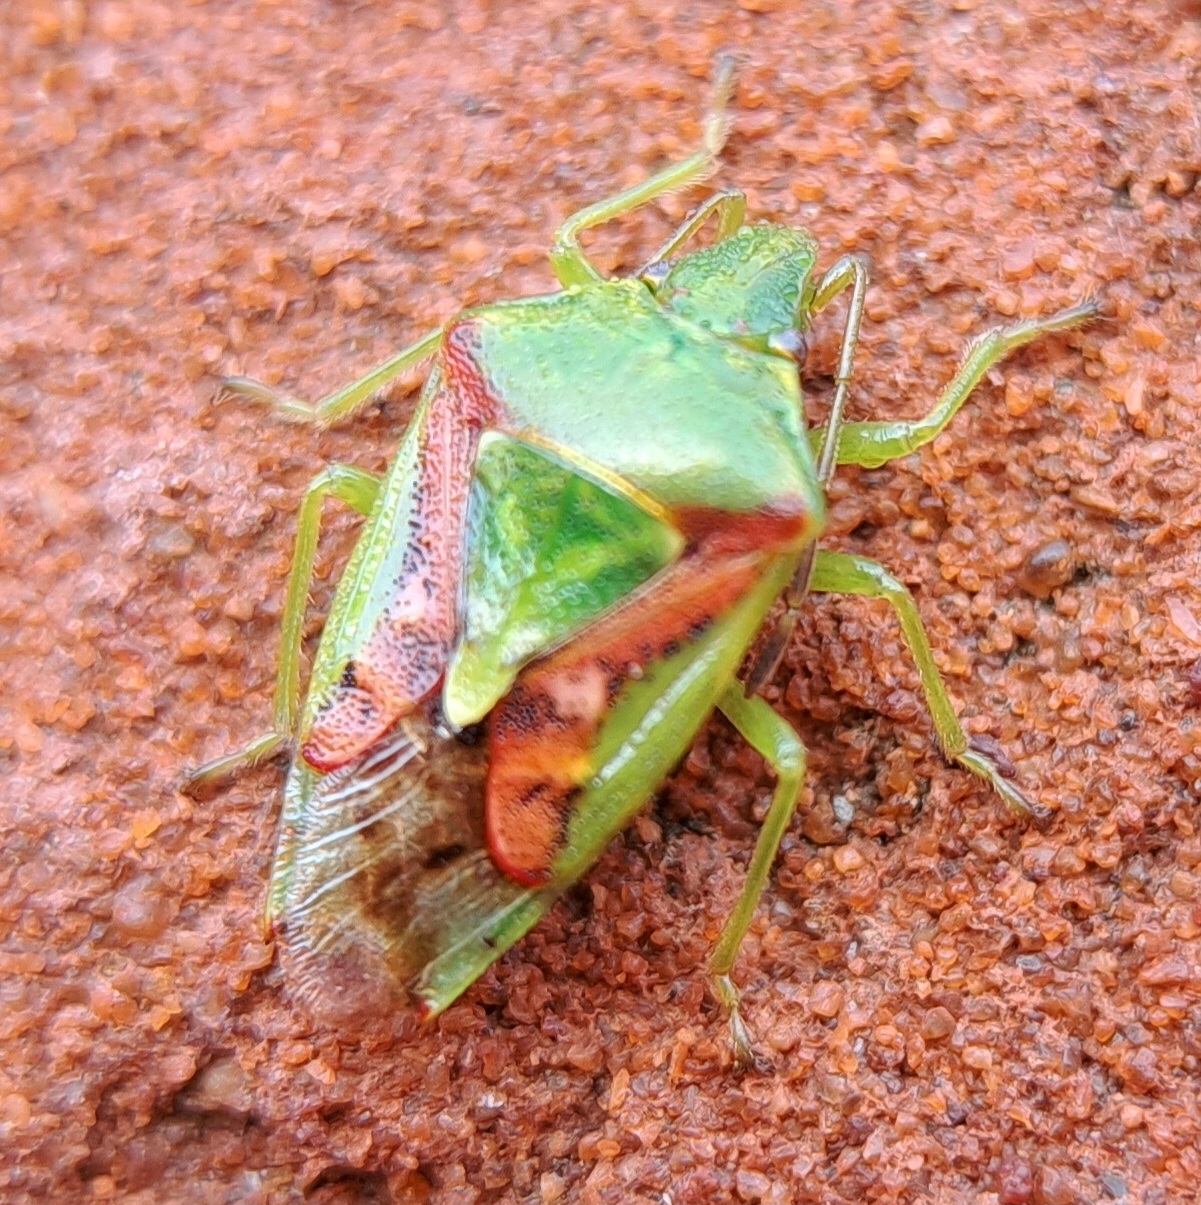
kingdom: Animalia
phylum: Arthropoda
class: Insecta
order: Hemiptera
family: Acanthosomatidae
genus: Cyphostethus
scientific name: Cyphostethus tristriatus
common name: Juniper shieldbug
